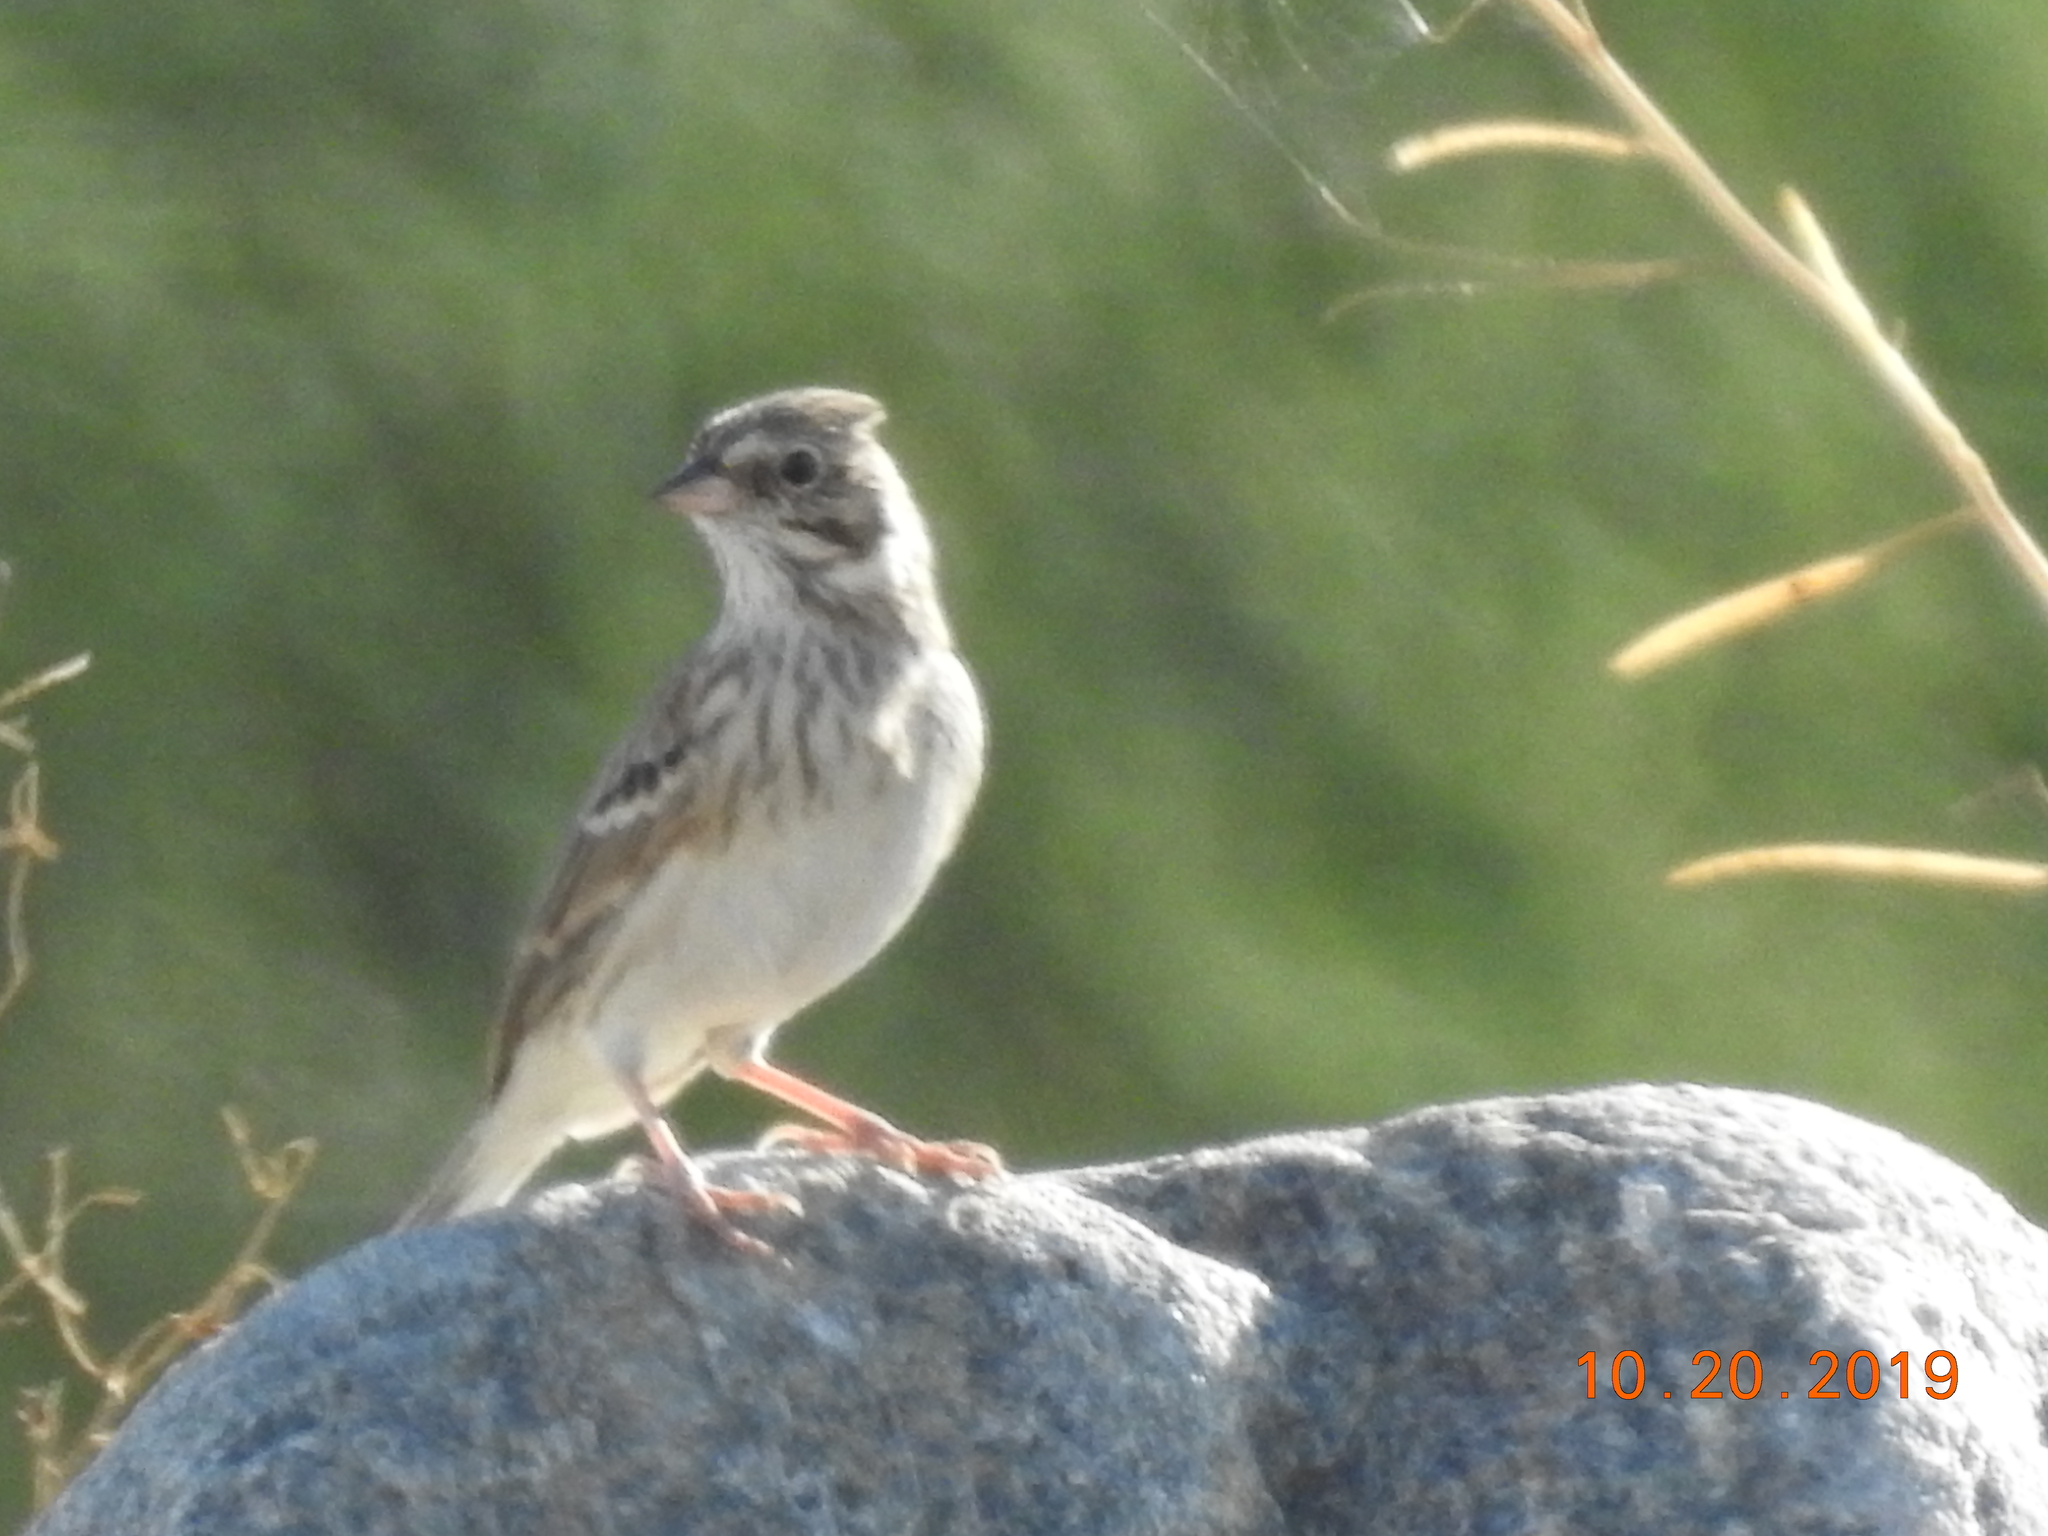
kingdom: Animalia
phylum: Chordata
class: Aves
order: Passeriformes
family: Passerellidae
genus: Pooecetes
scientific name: Pooecetes gramineus
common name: Vesper sparrow
